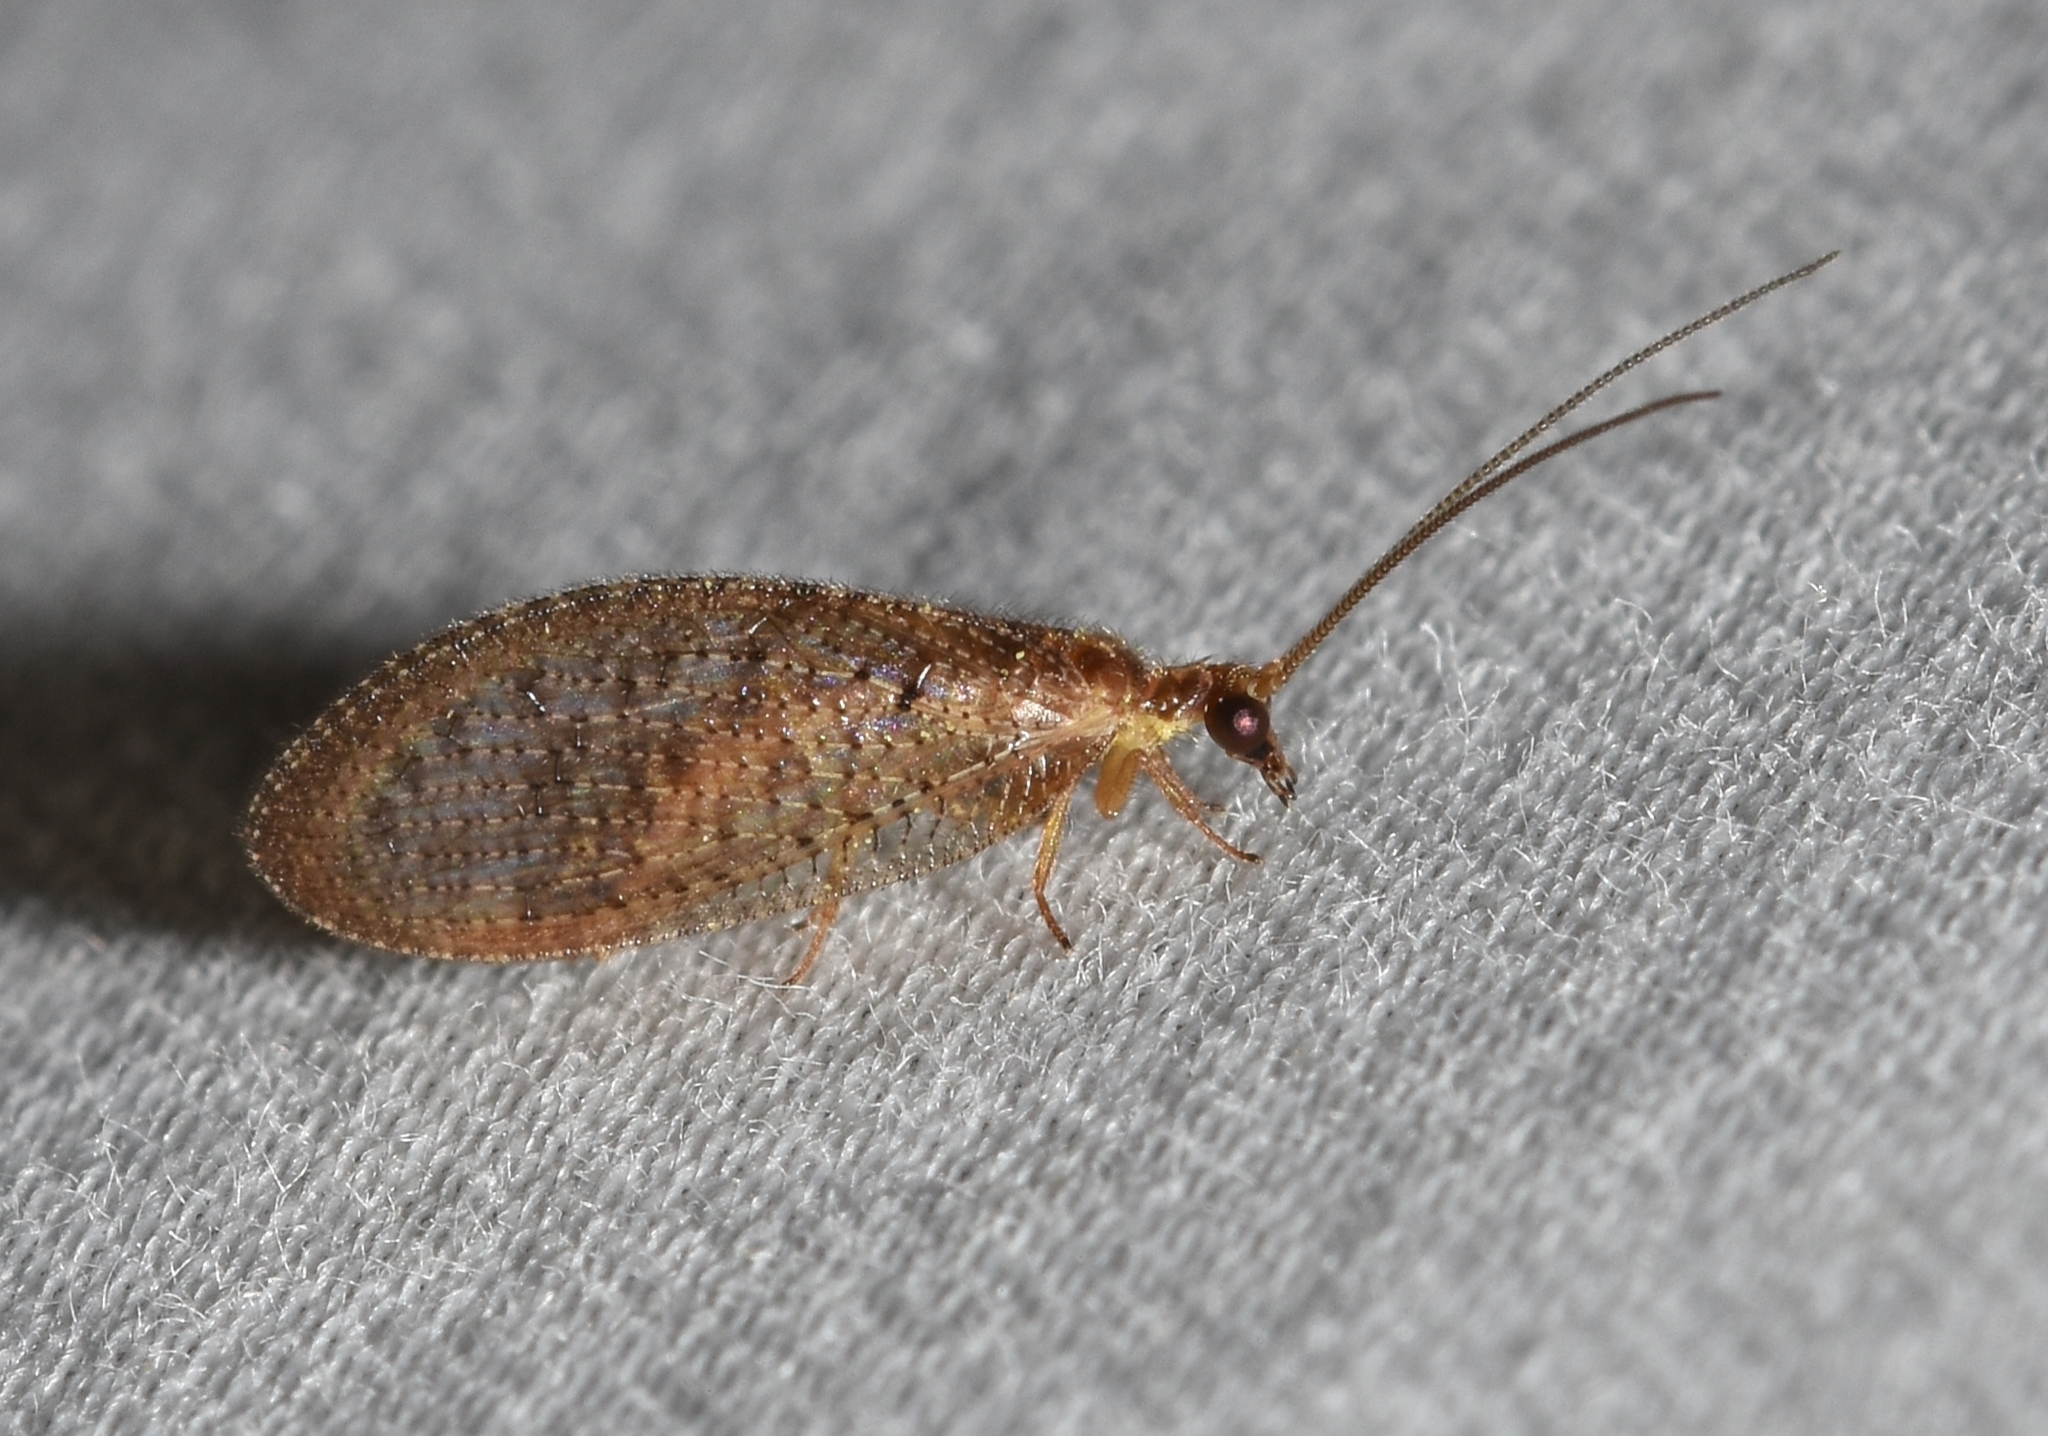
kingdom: Animalia
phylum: Arthropoda
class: Insecta
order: Neuroptera
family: Hemerobiidae
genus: Hemerobius
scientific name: Hemerobius stigma
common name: Brown pine lacewing
